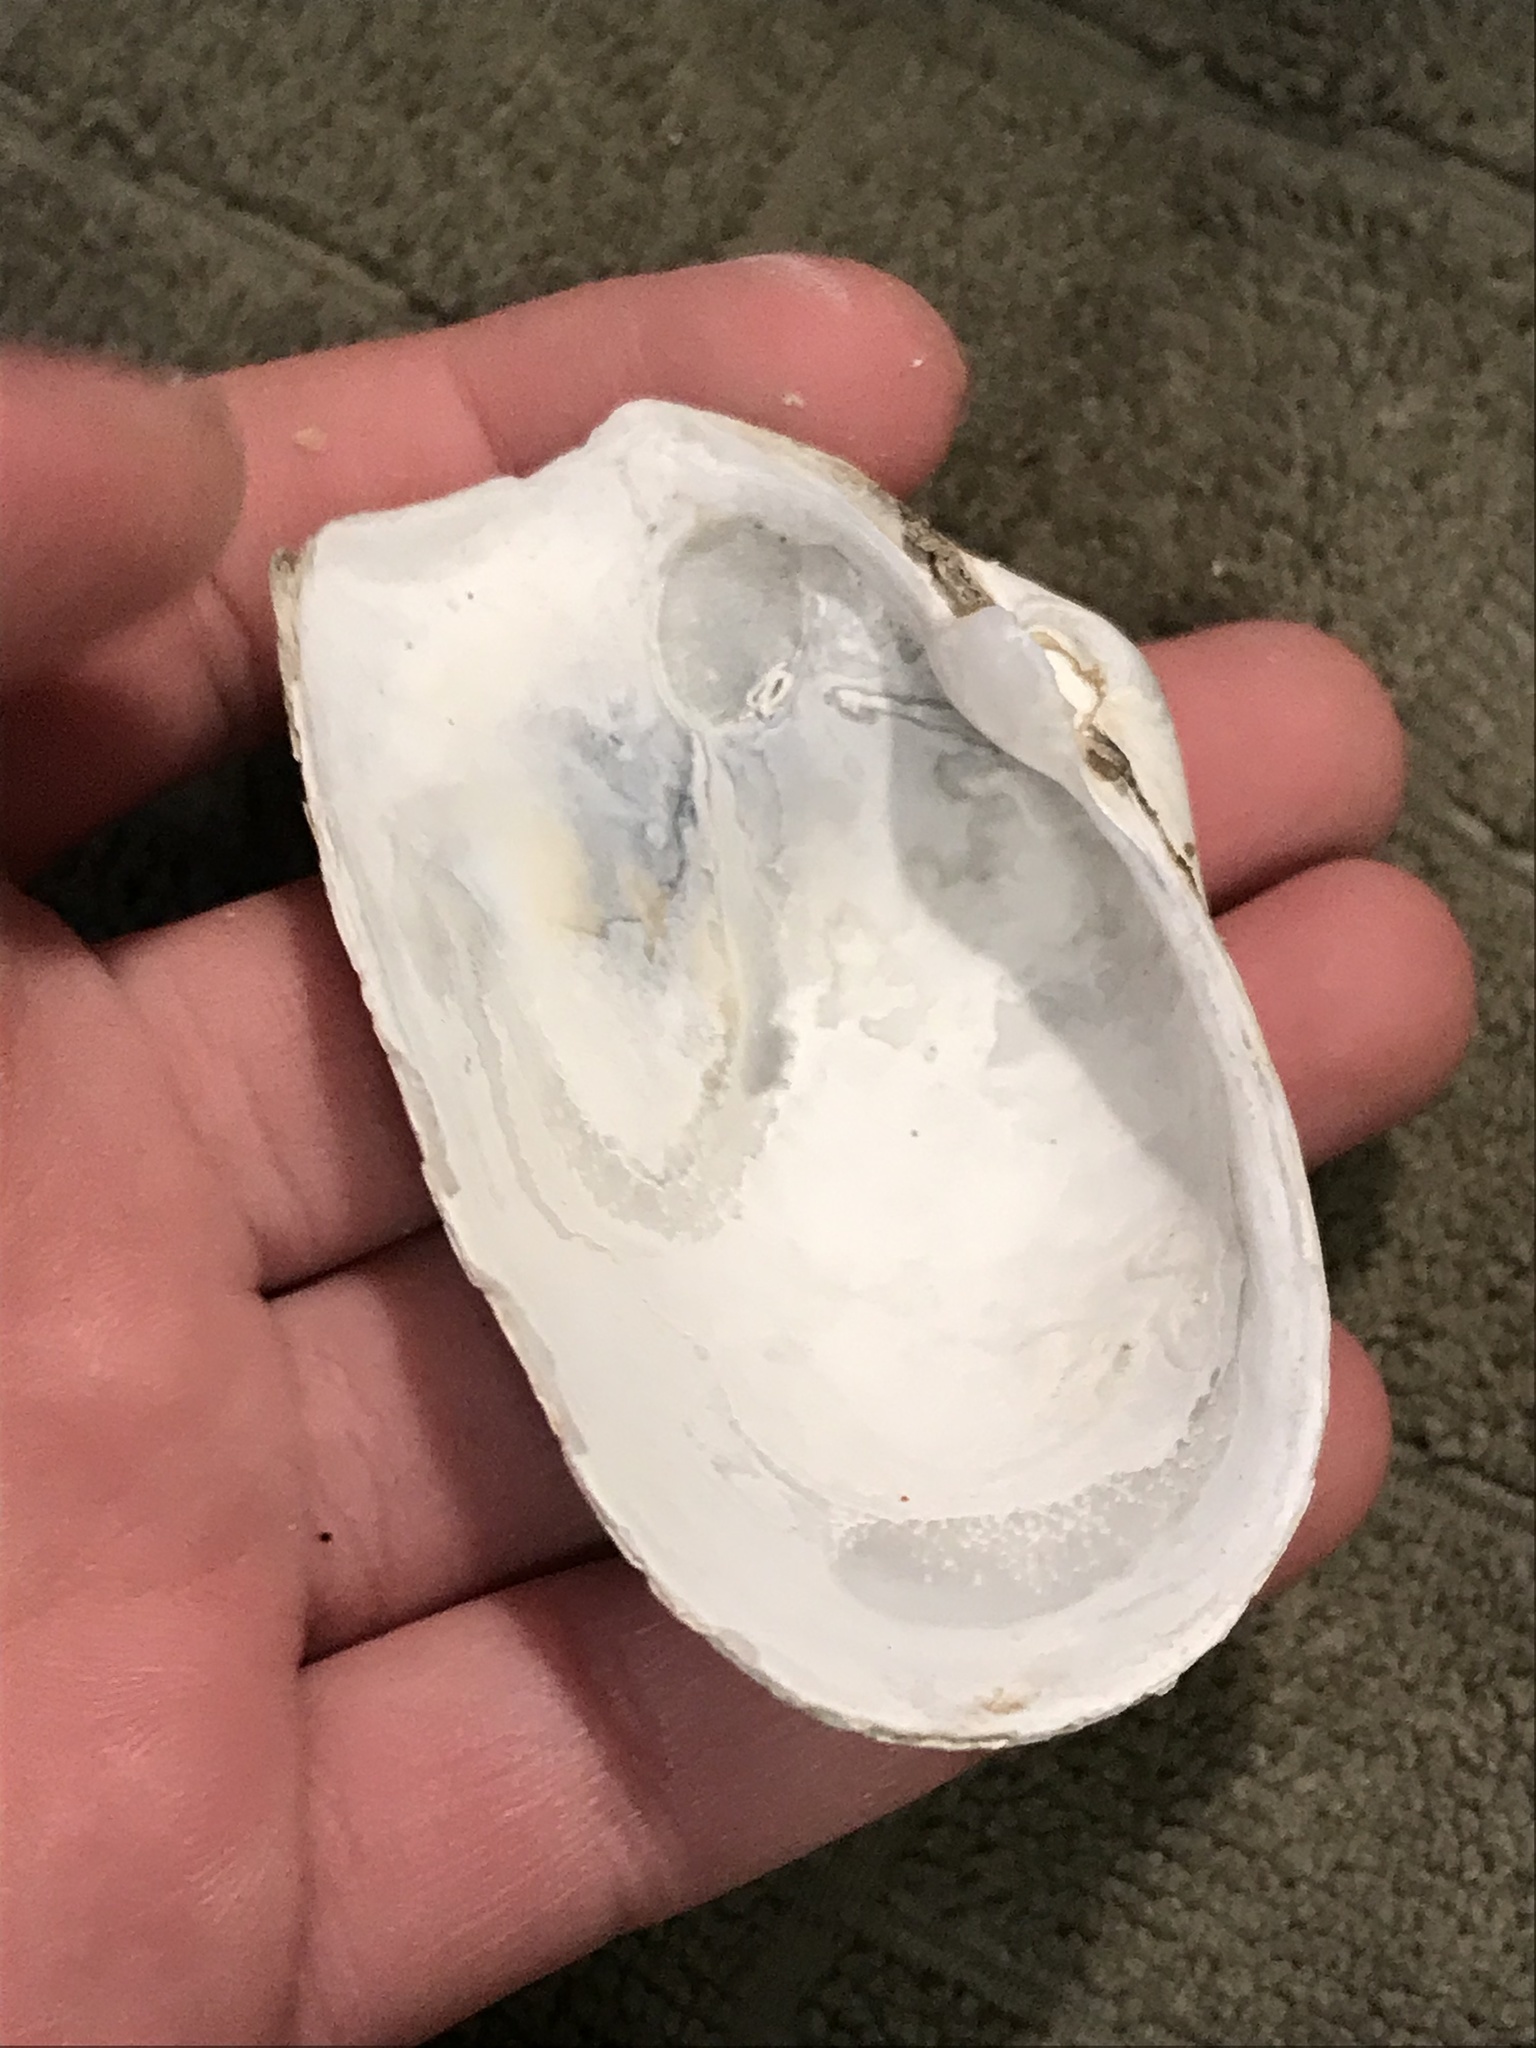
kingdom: Animalia
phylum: Mollusca
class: Bivalvia
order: Myida
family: Myidae
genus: Platyodon
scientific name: Platyodon cancellatus
